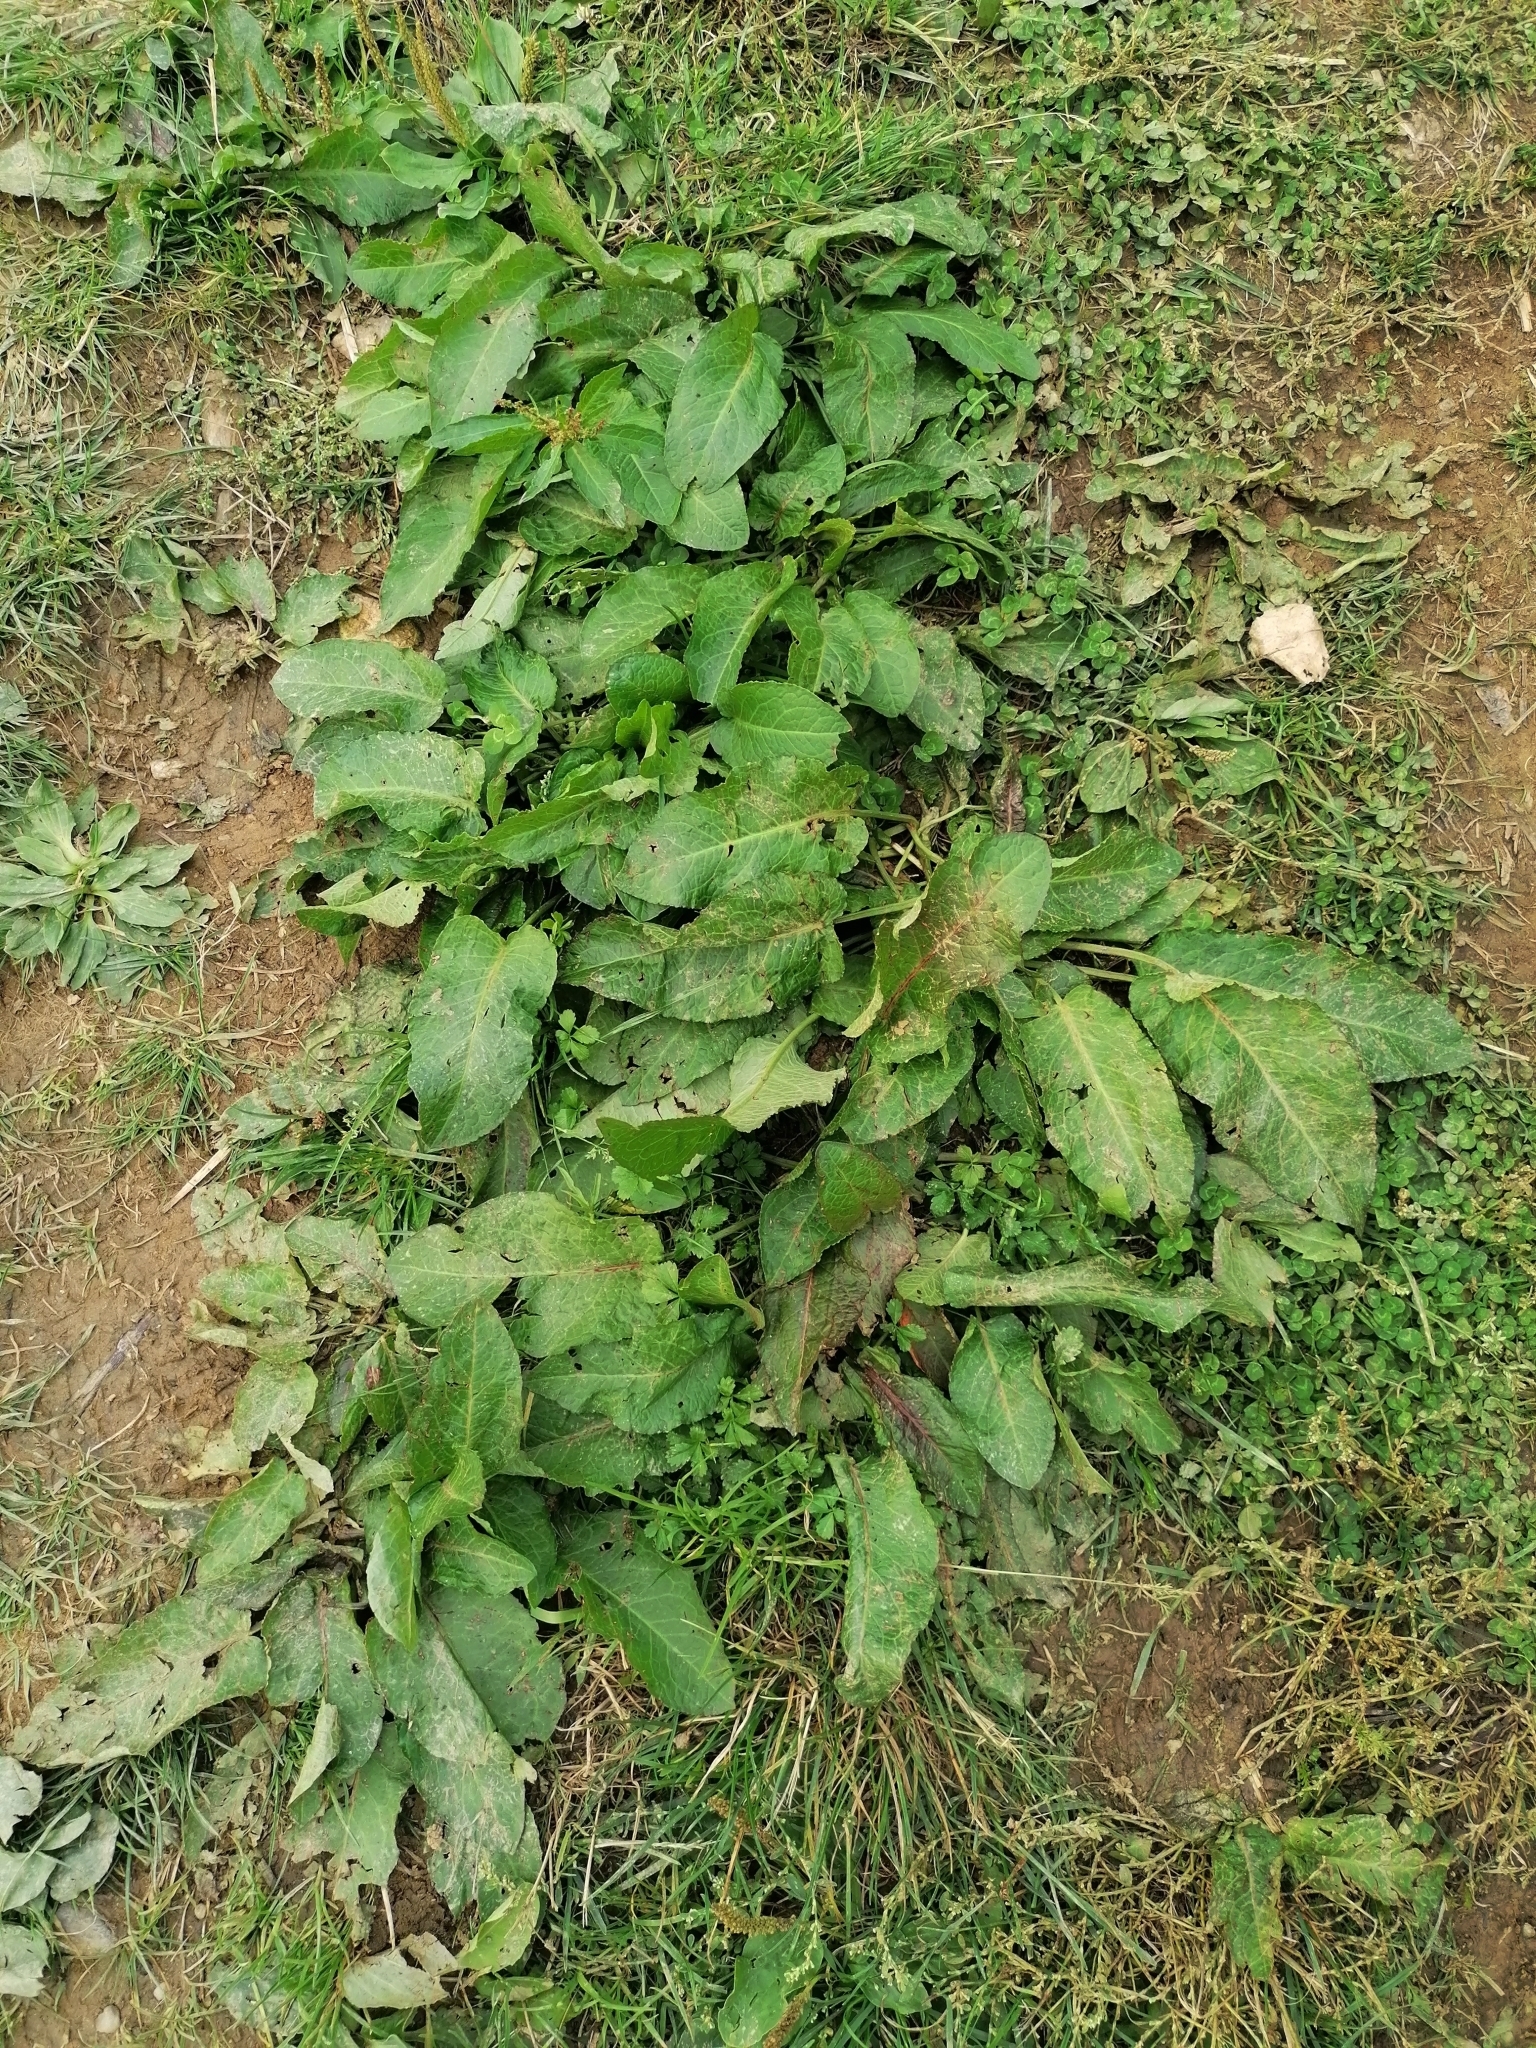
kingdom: Plantae
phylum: Tracheophyta
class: Magnoliopsida
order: Caryophyllales
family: Polygonaceae
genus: Rumex
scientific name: Rumex obtusifolius
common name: Bitter dock
